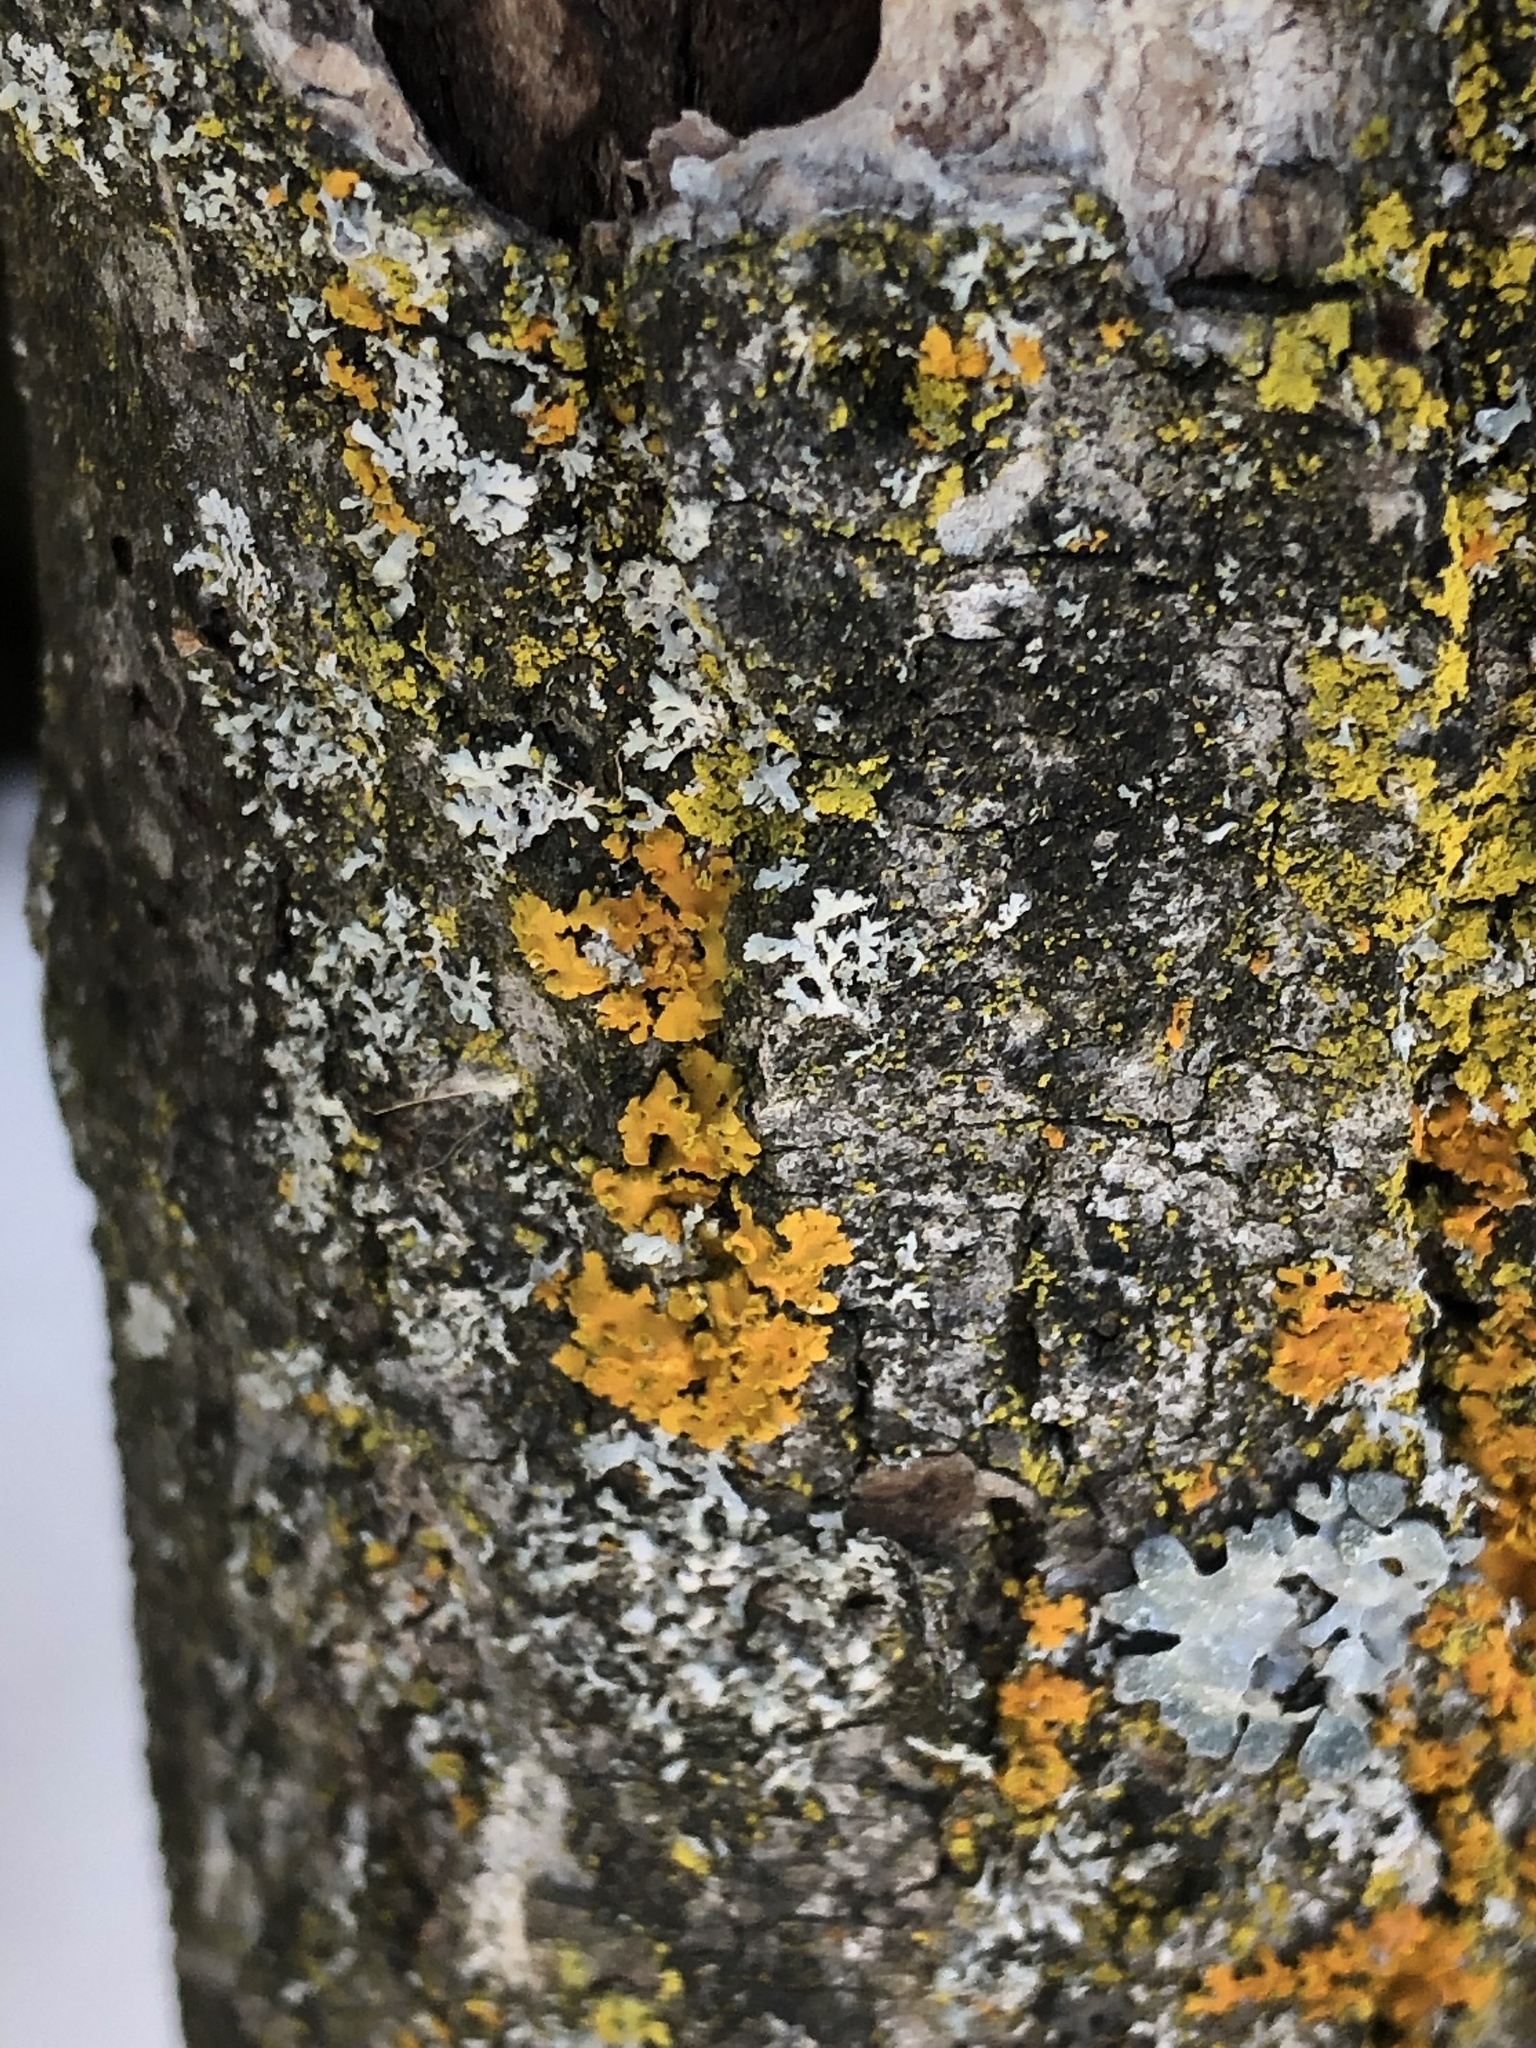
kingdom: Fungi
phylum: Ascomycota
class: Lecanoromycetes
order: Teloschistales
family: Teloschistaceae
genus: Oxneria
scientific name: Oxneria fallax
